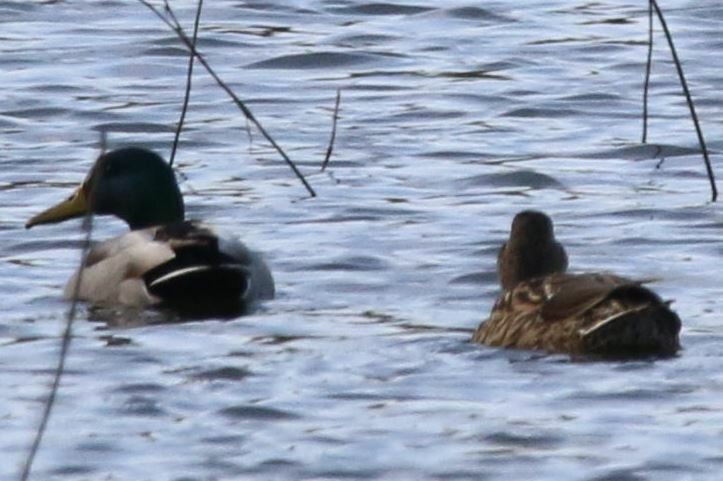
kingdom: Animalia
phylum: Chordata
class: Aves
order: Anseriformes
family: Anatidae
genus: Anas
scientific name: Anas platyrhynchos
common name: Mallard
